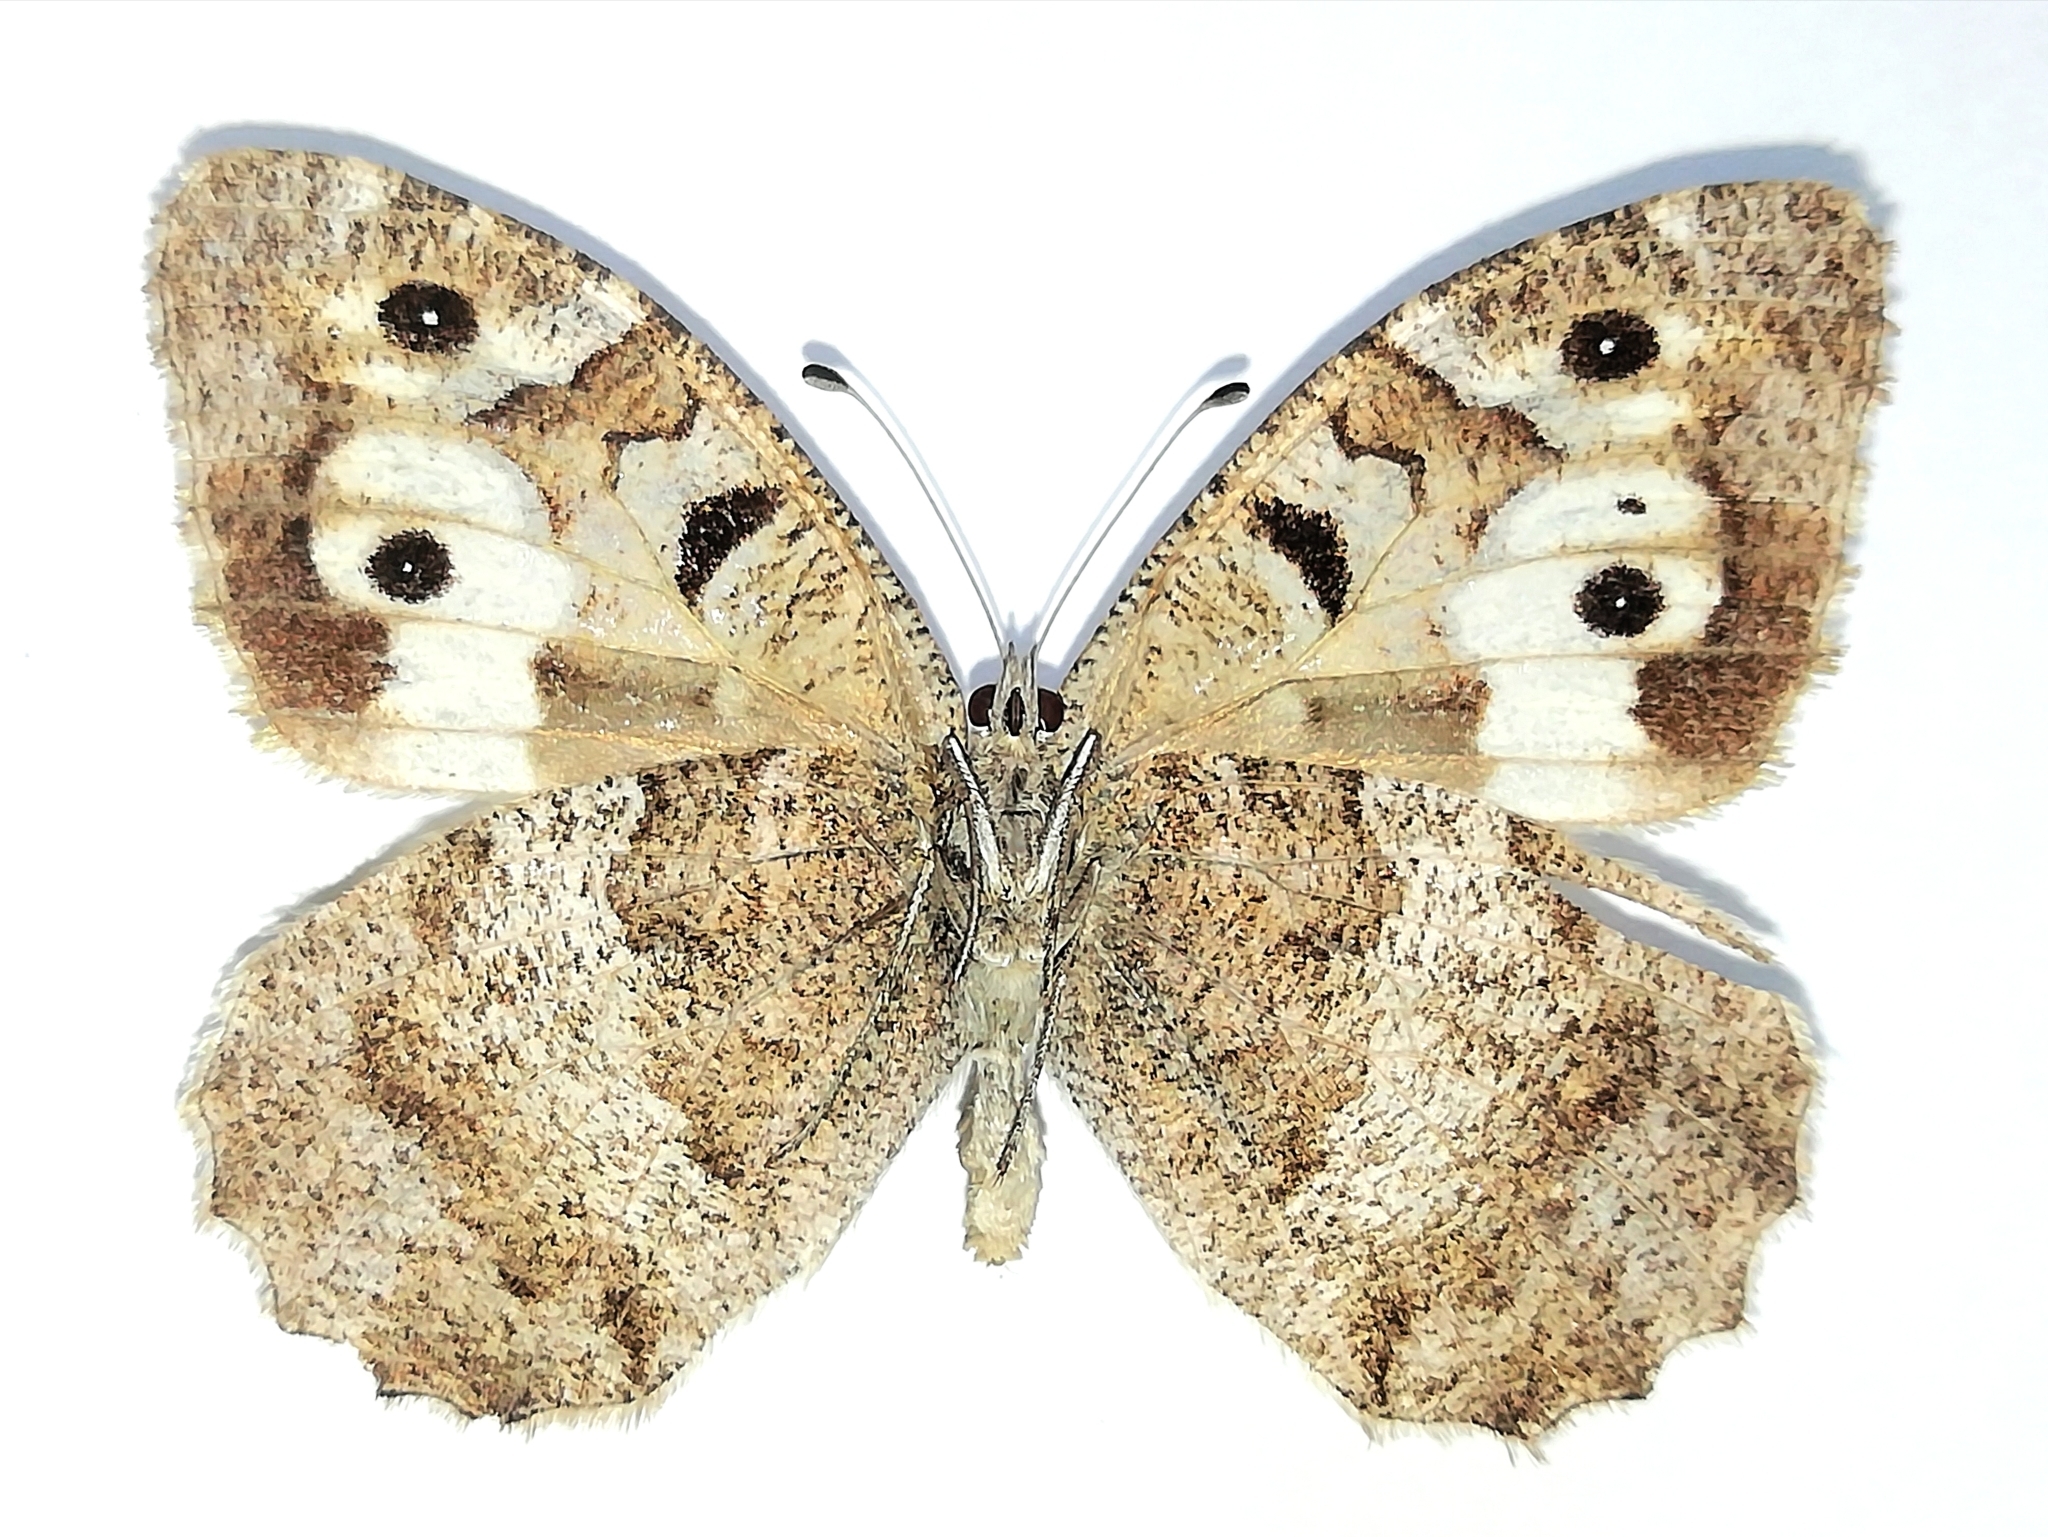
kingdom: Animalia
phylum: Arthropoda
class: Insecta
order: Lepidoptera
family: Nymphalidae
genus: Satyrus
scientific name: Satyrus briseis
